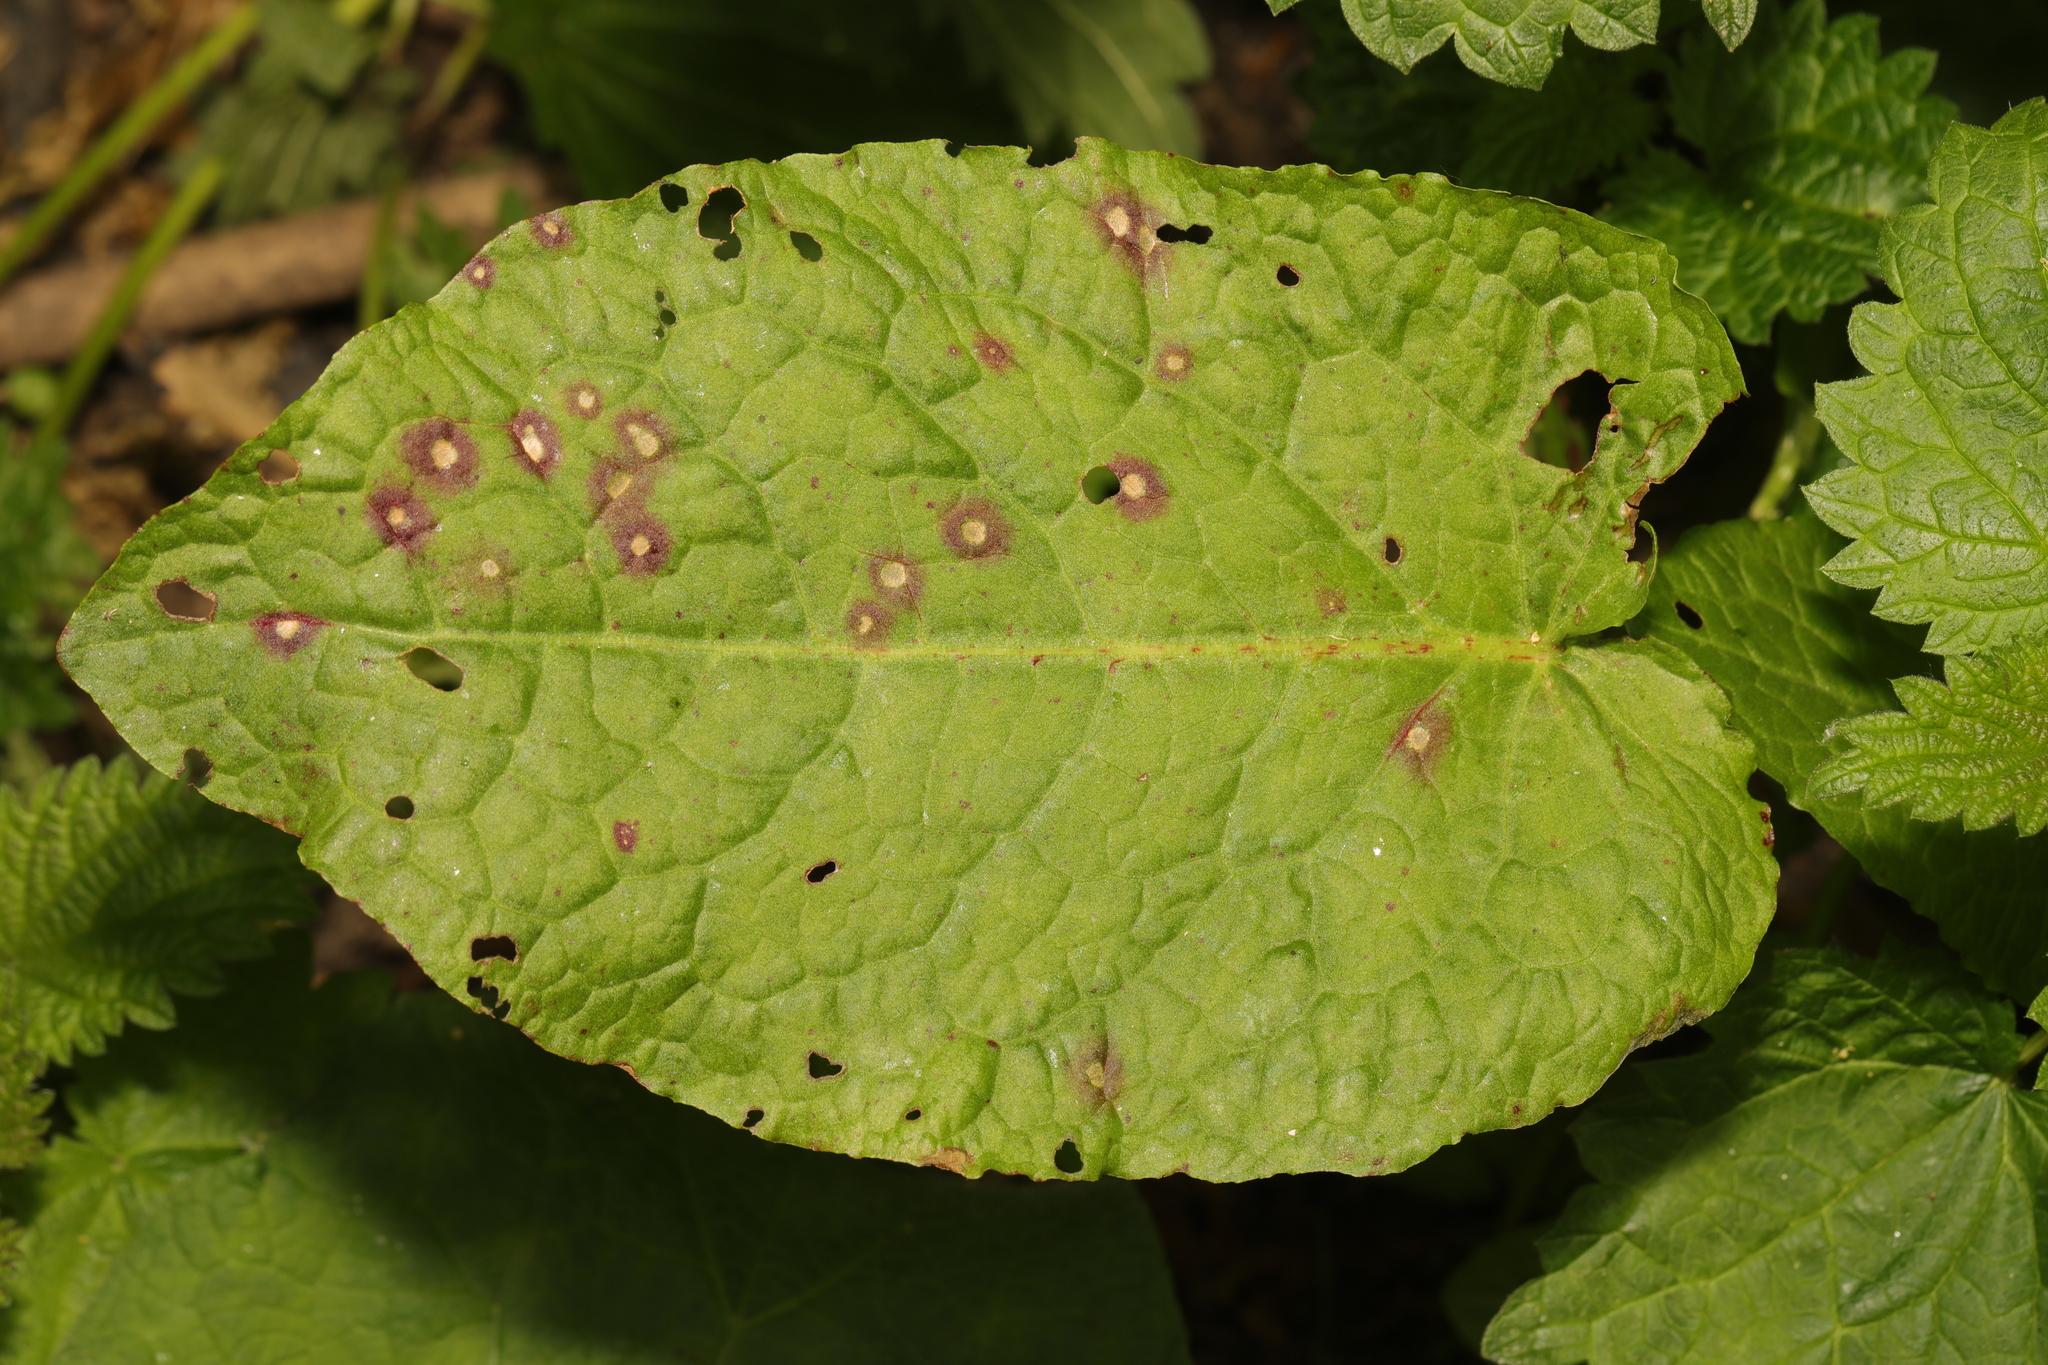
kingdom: Plantae
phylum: Tracheophyta
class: Magnoliopsida
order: Caryophyllales
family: Polygonaceae
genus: Rumex
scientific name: Rumex obtusifolius
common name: Bitter dock
